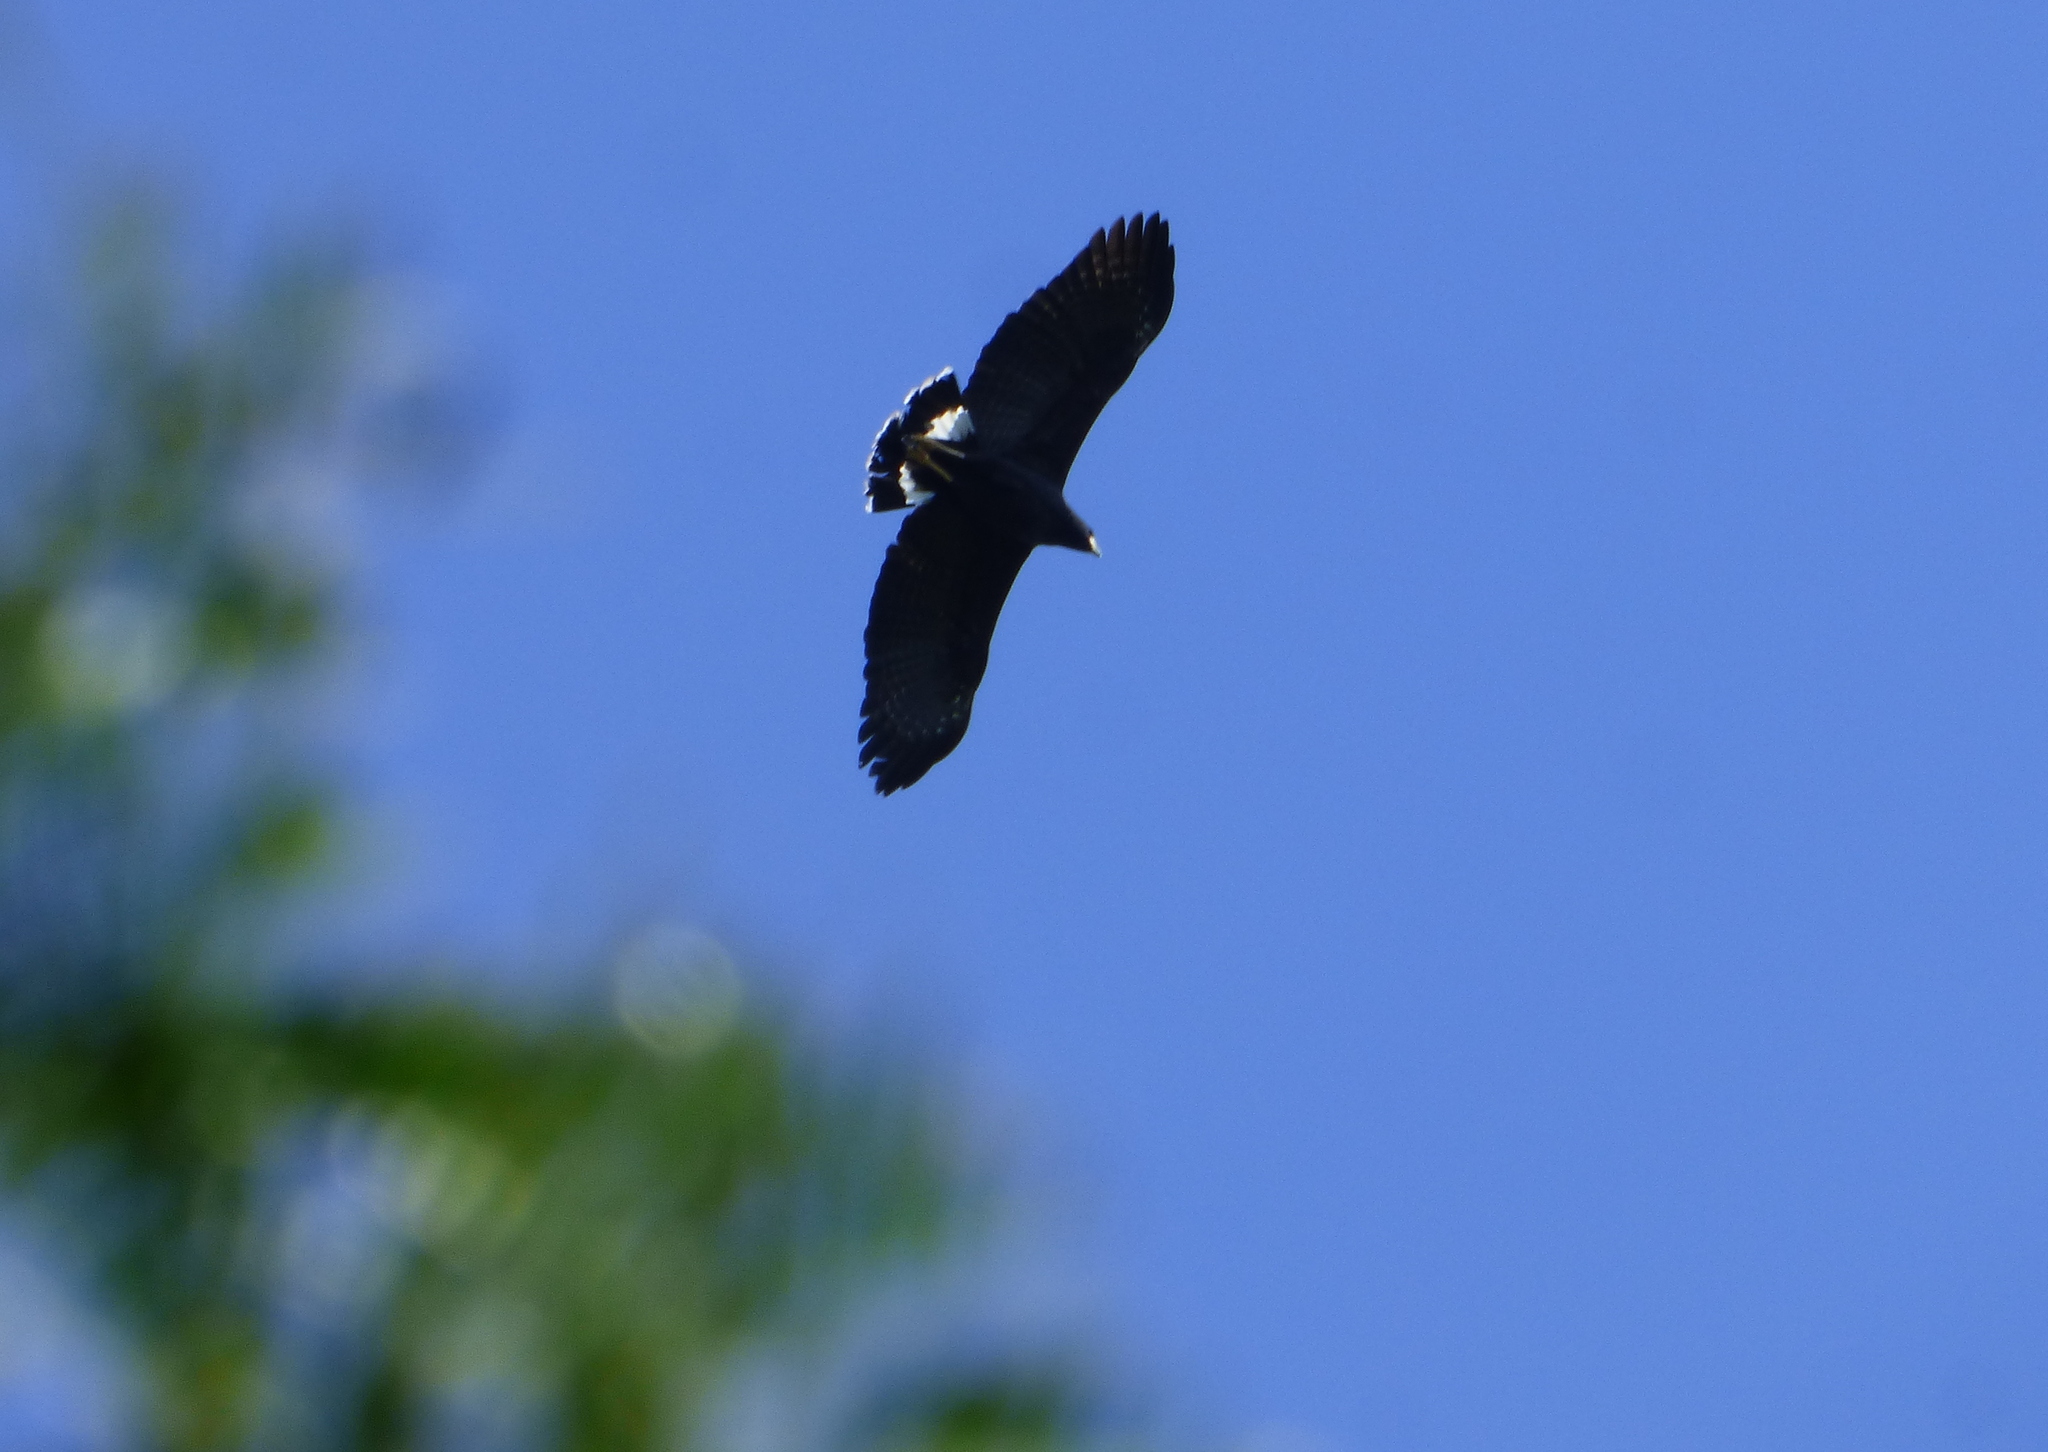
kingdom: Animalia
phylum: Chordata
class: Aves
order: Accipitriformes
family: Accipitridae
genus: Buteogallus
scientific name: Buteogallus urubitinga
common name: Great black hawk
